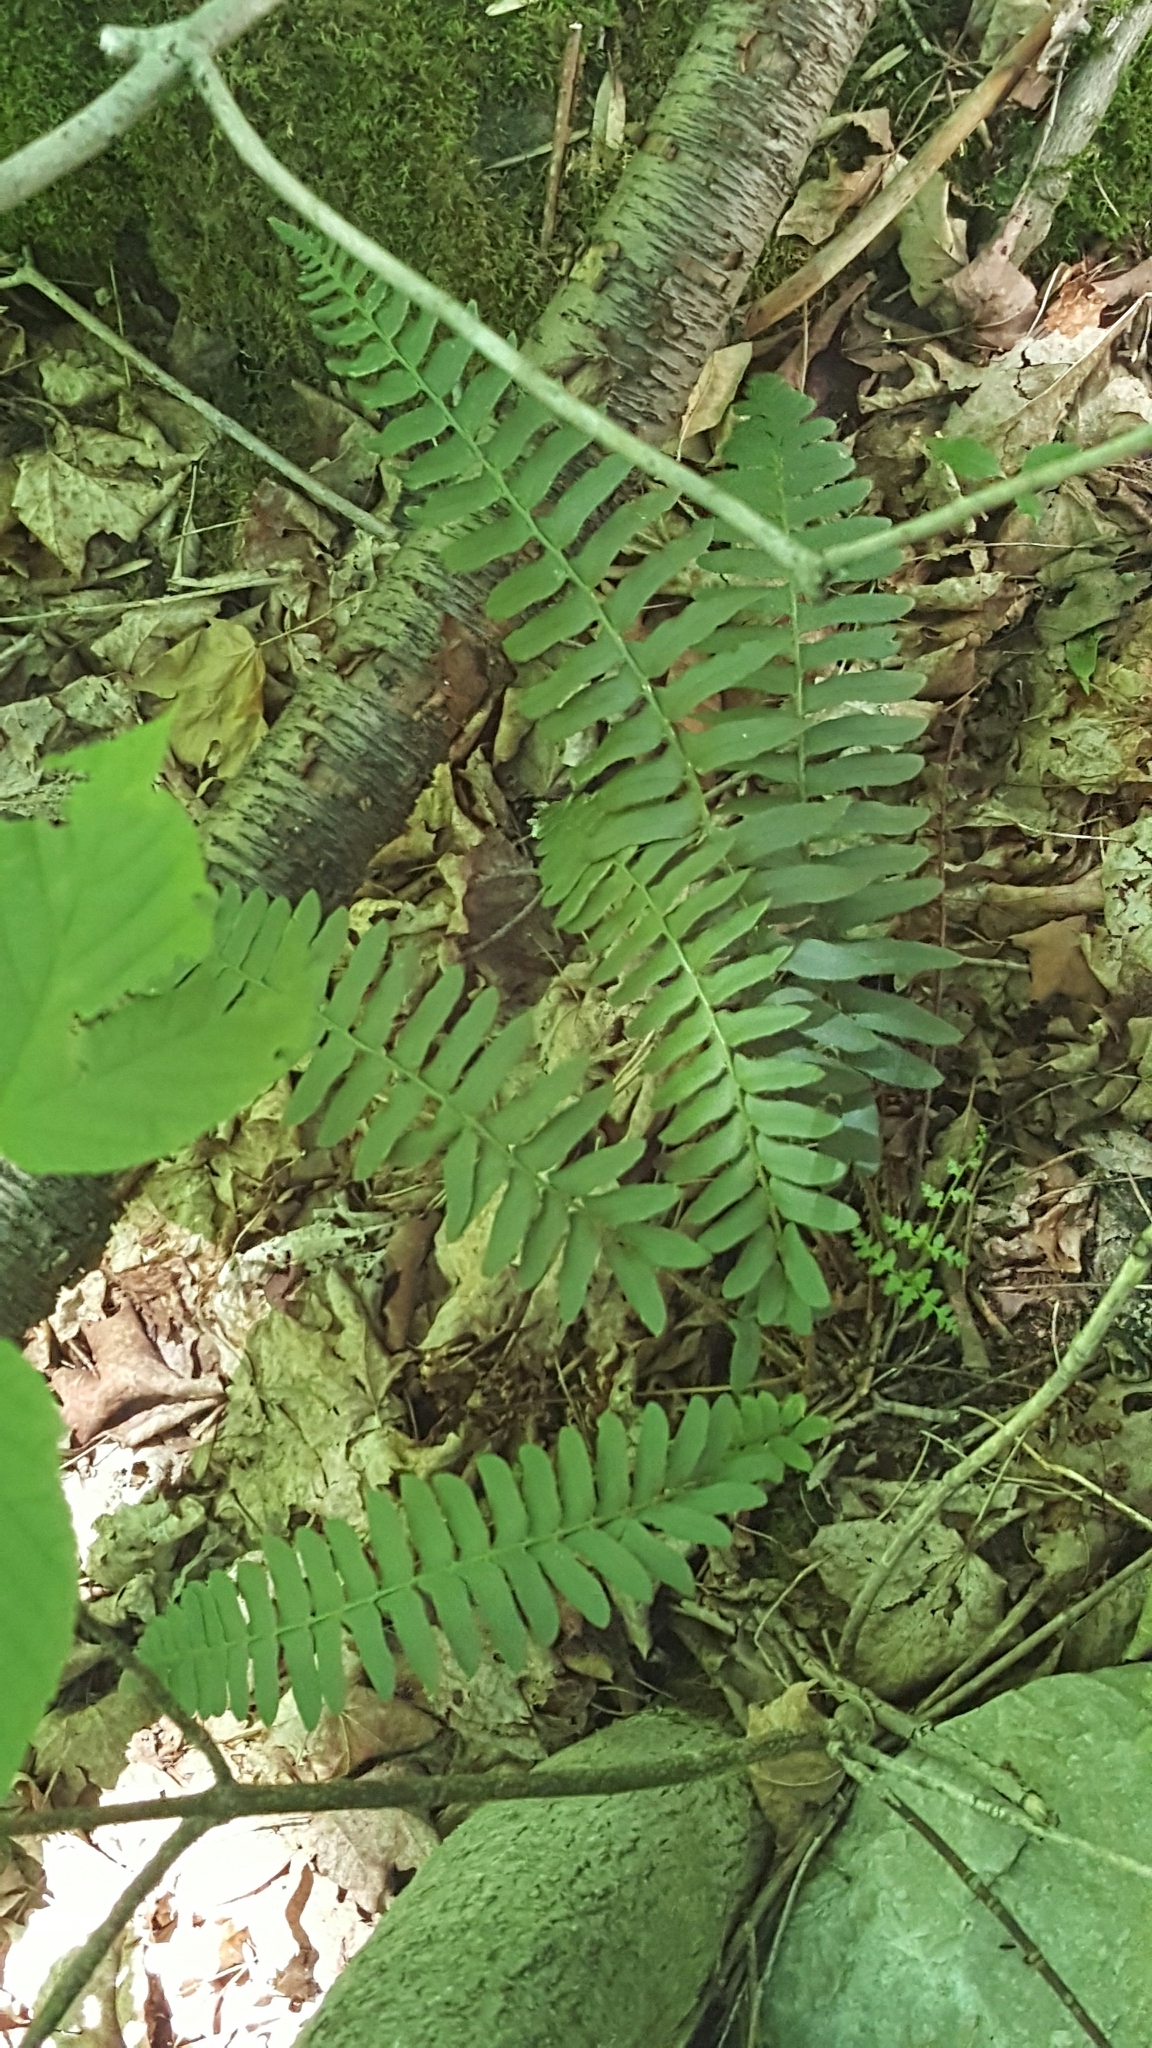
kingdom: Plantae
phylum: Tracheophyta
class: Polypodiopsida
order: Polypodiales
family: Dryopteridaceae
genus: Polystichum
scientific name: Polystichum acrostichoides
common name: Christmas fern
